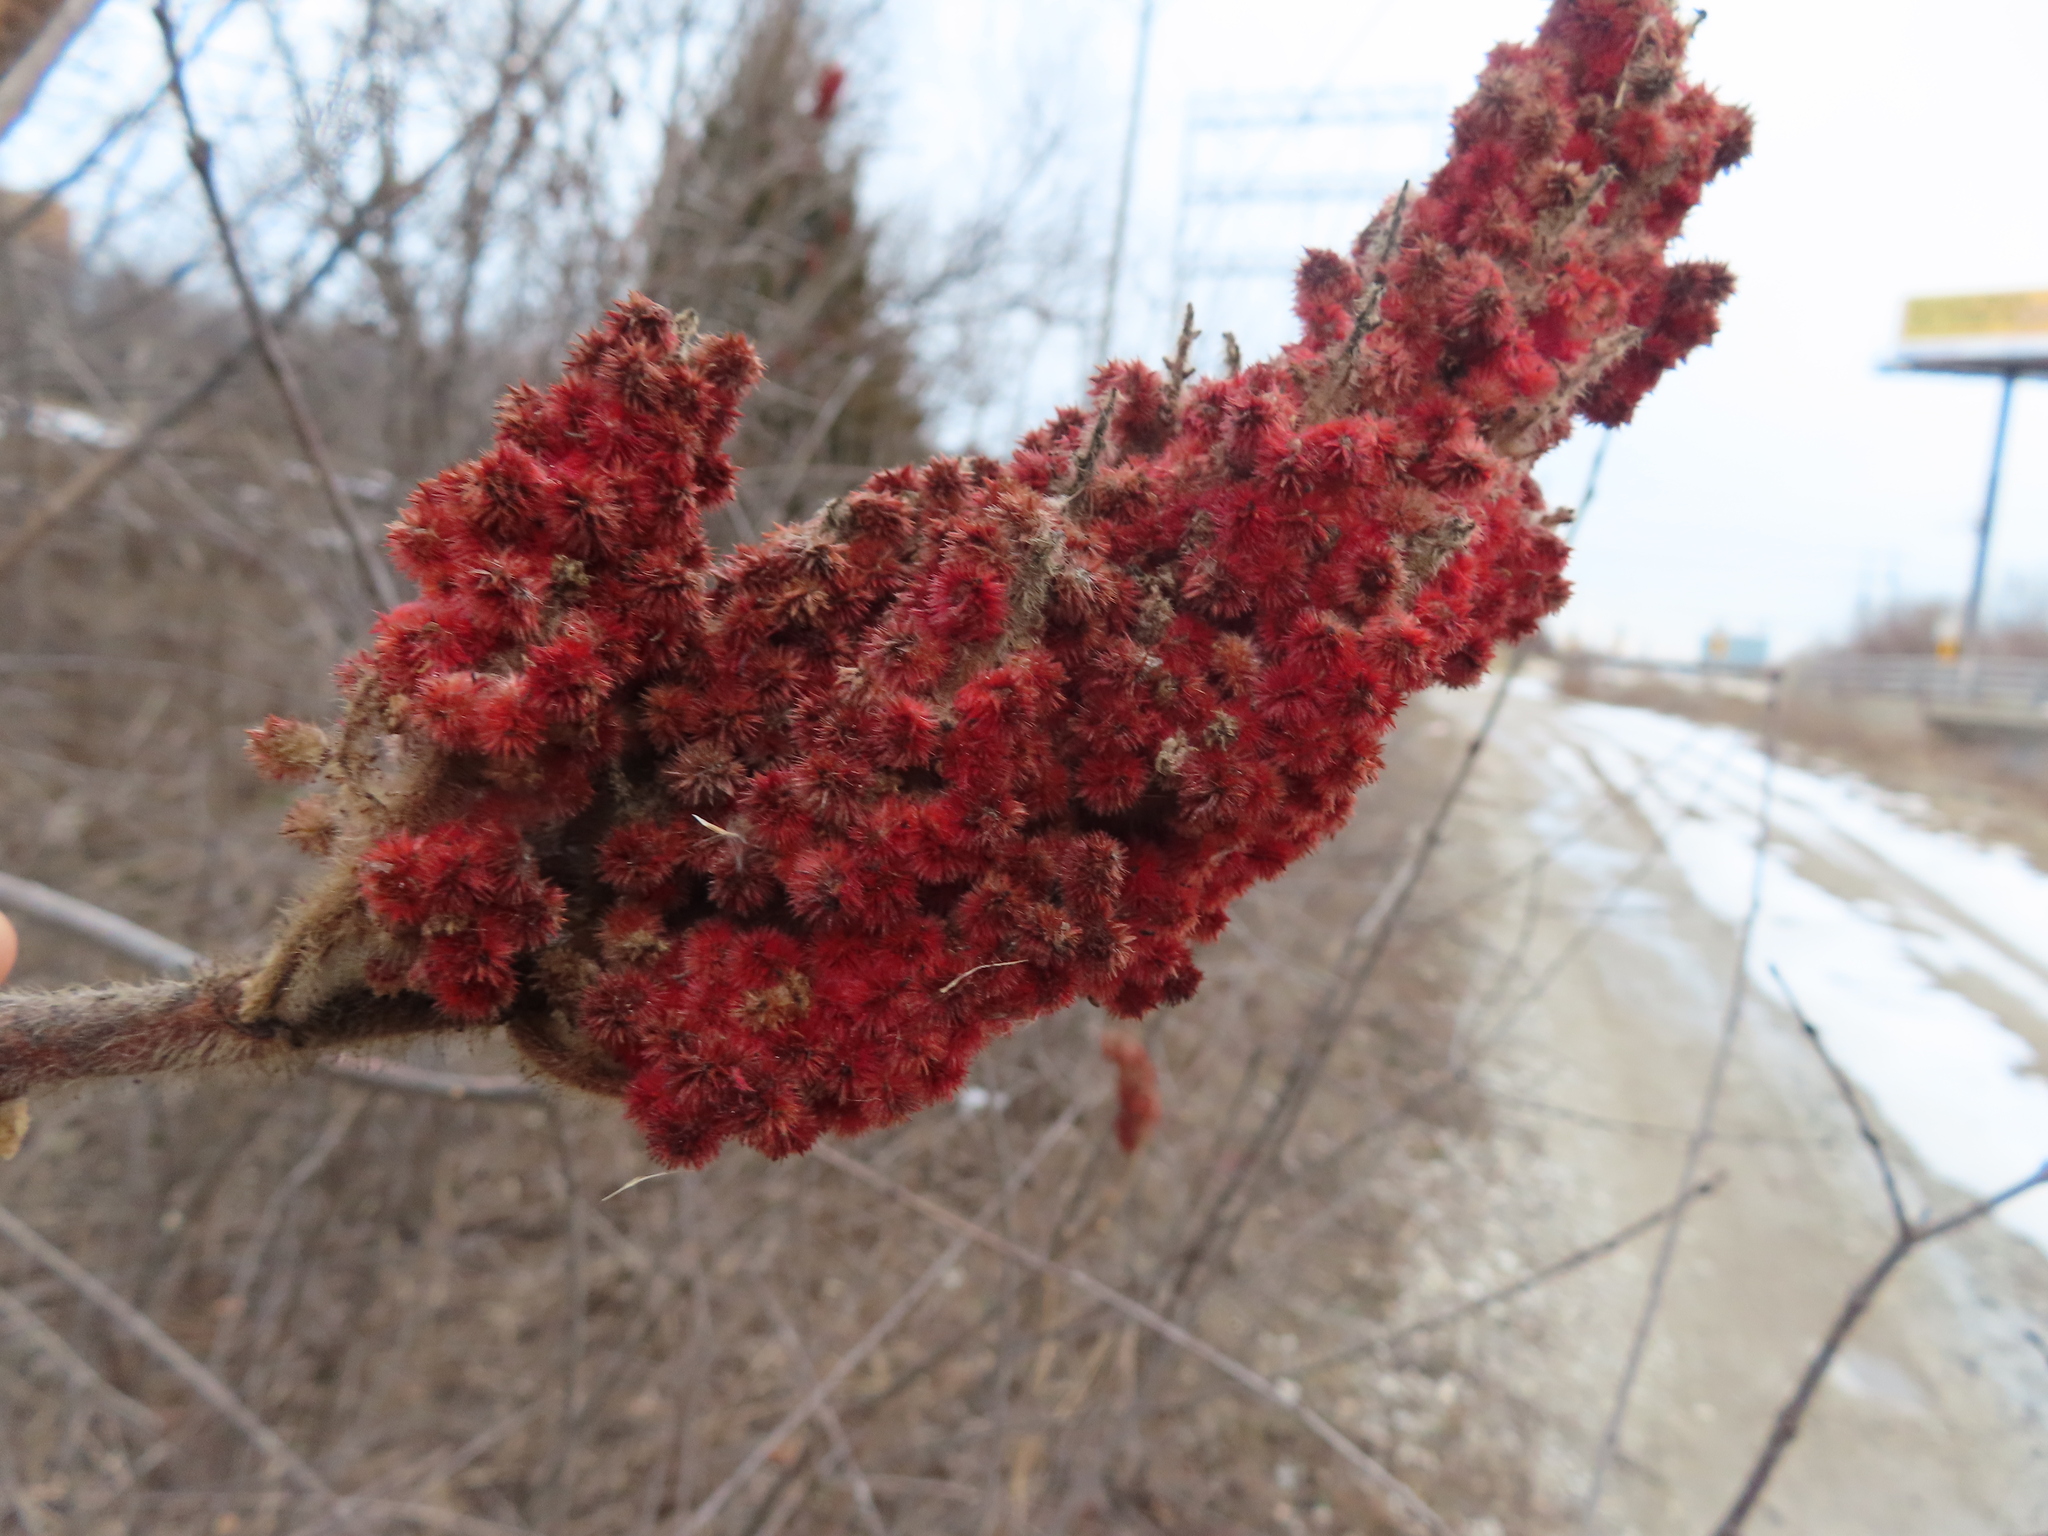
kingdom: Plantae
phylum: Tracheophyta
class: Magnoliopsida
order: Sapindales
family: Anacardiaceae
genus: Rhus
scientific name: Rhus typhina
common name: Staghorn sumac
